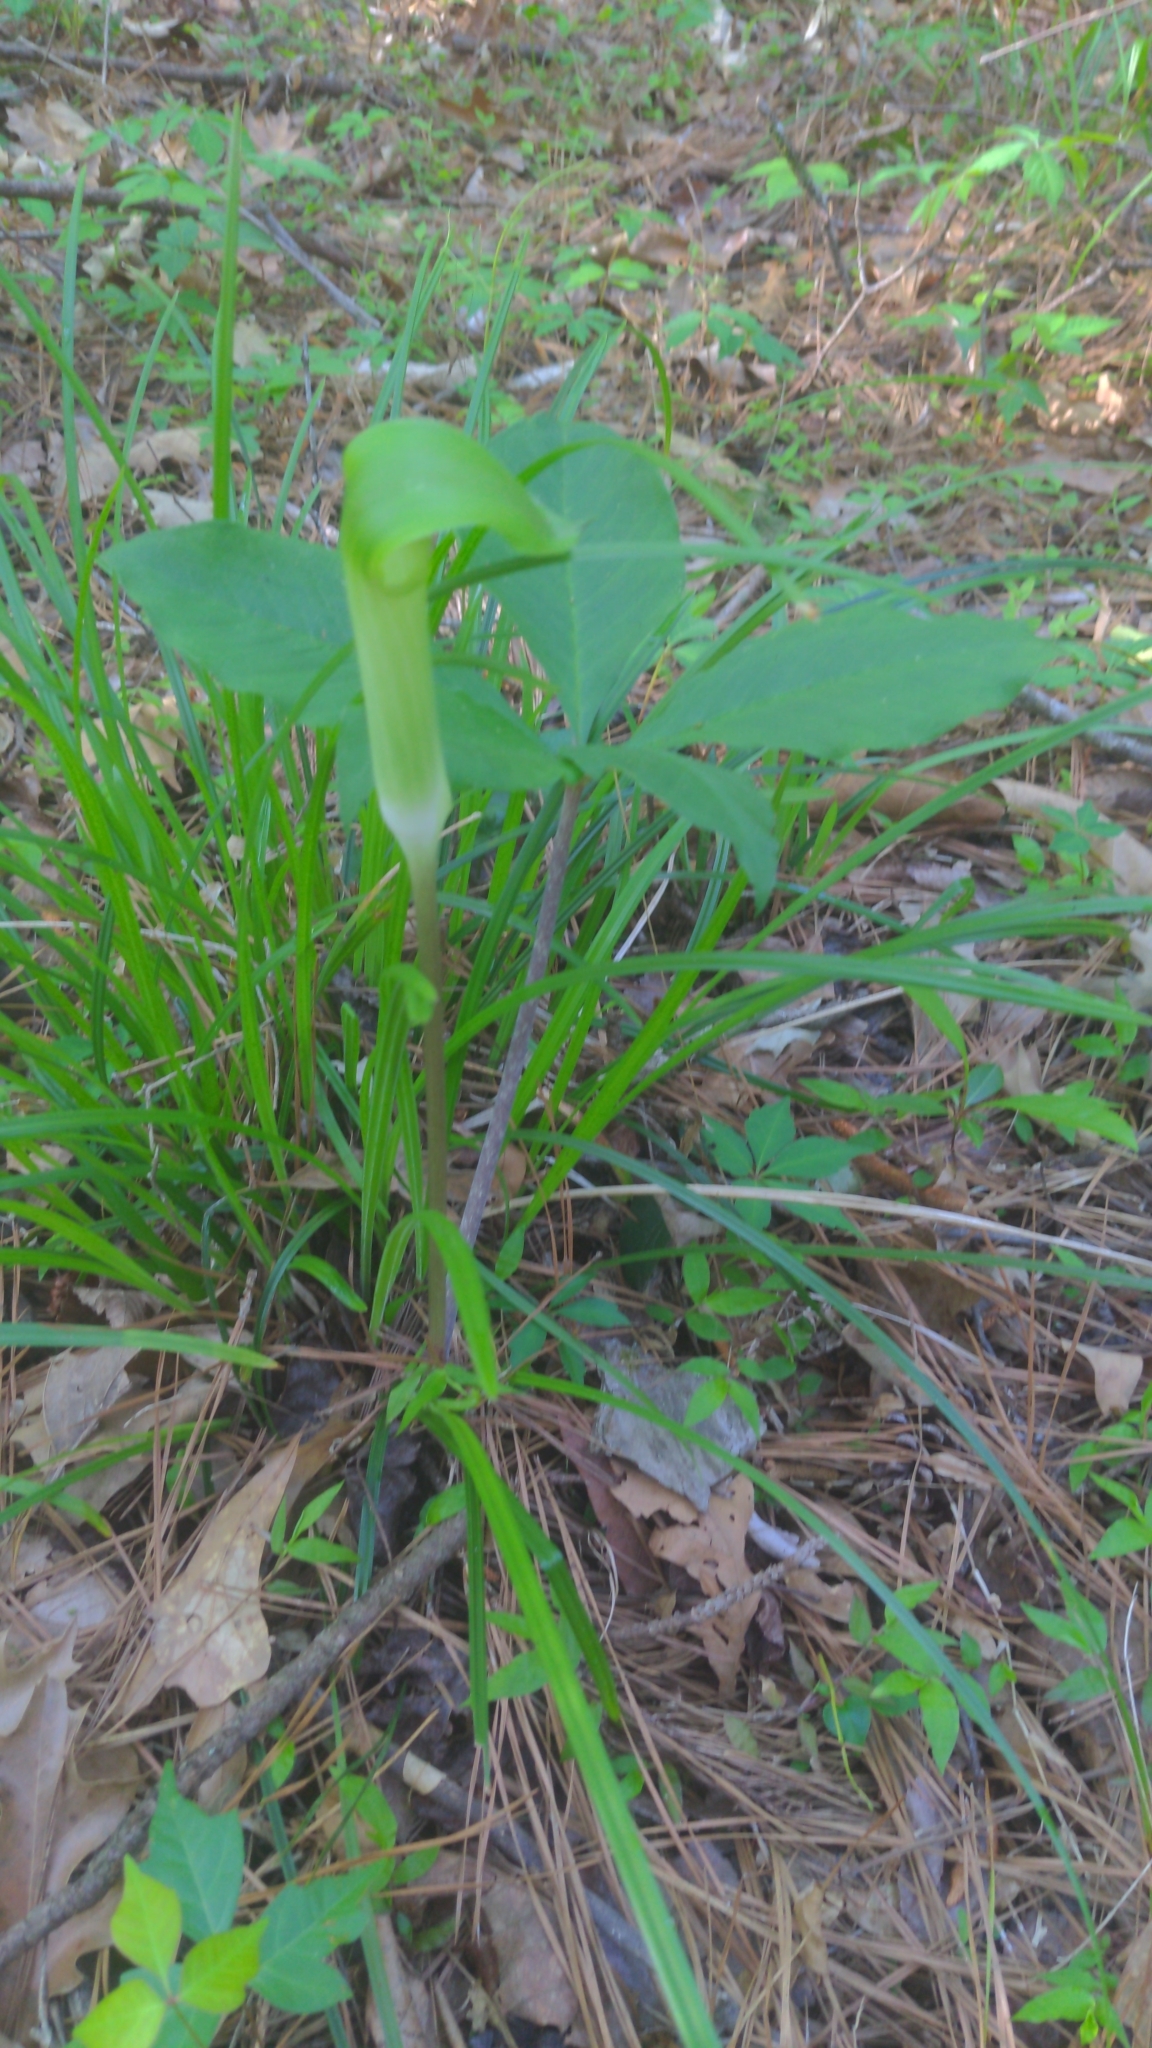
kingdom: Plantae
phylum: Tracheophyta
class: Liliopsida
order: Alismatales
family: Araceae
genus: Arisaema
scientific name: Arisaema quinatum
